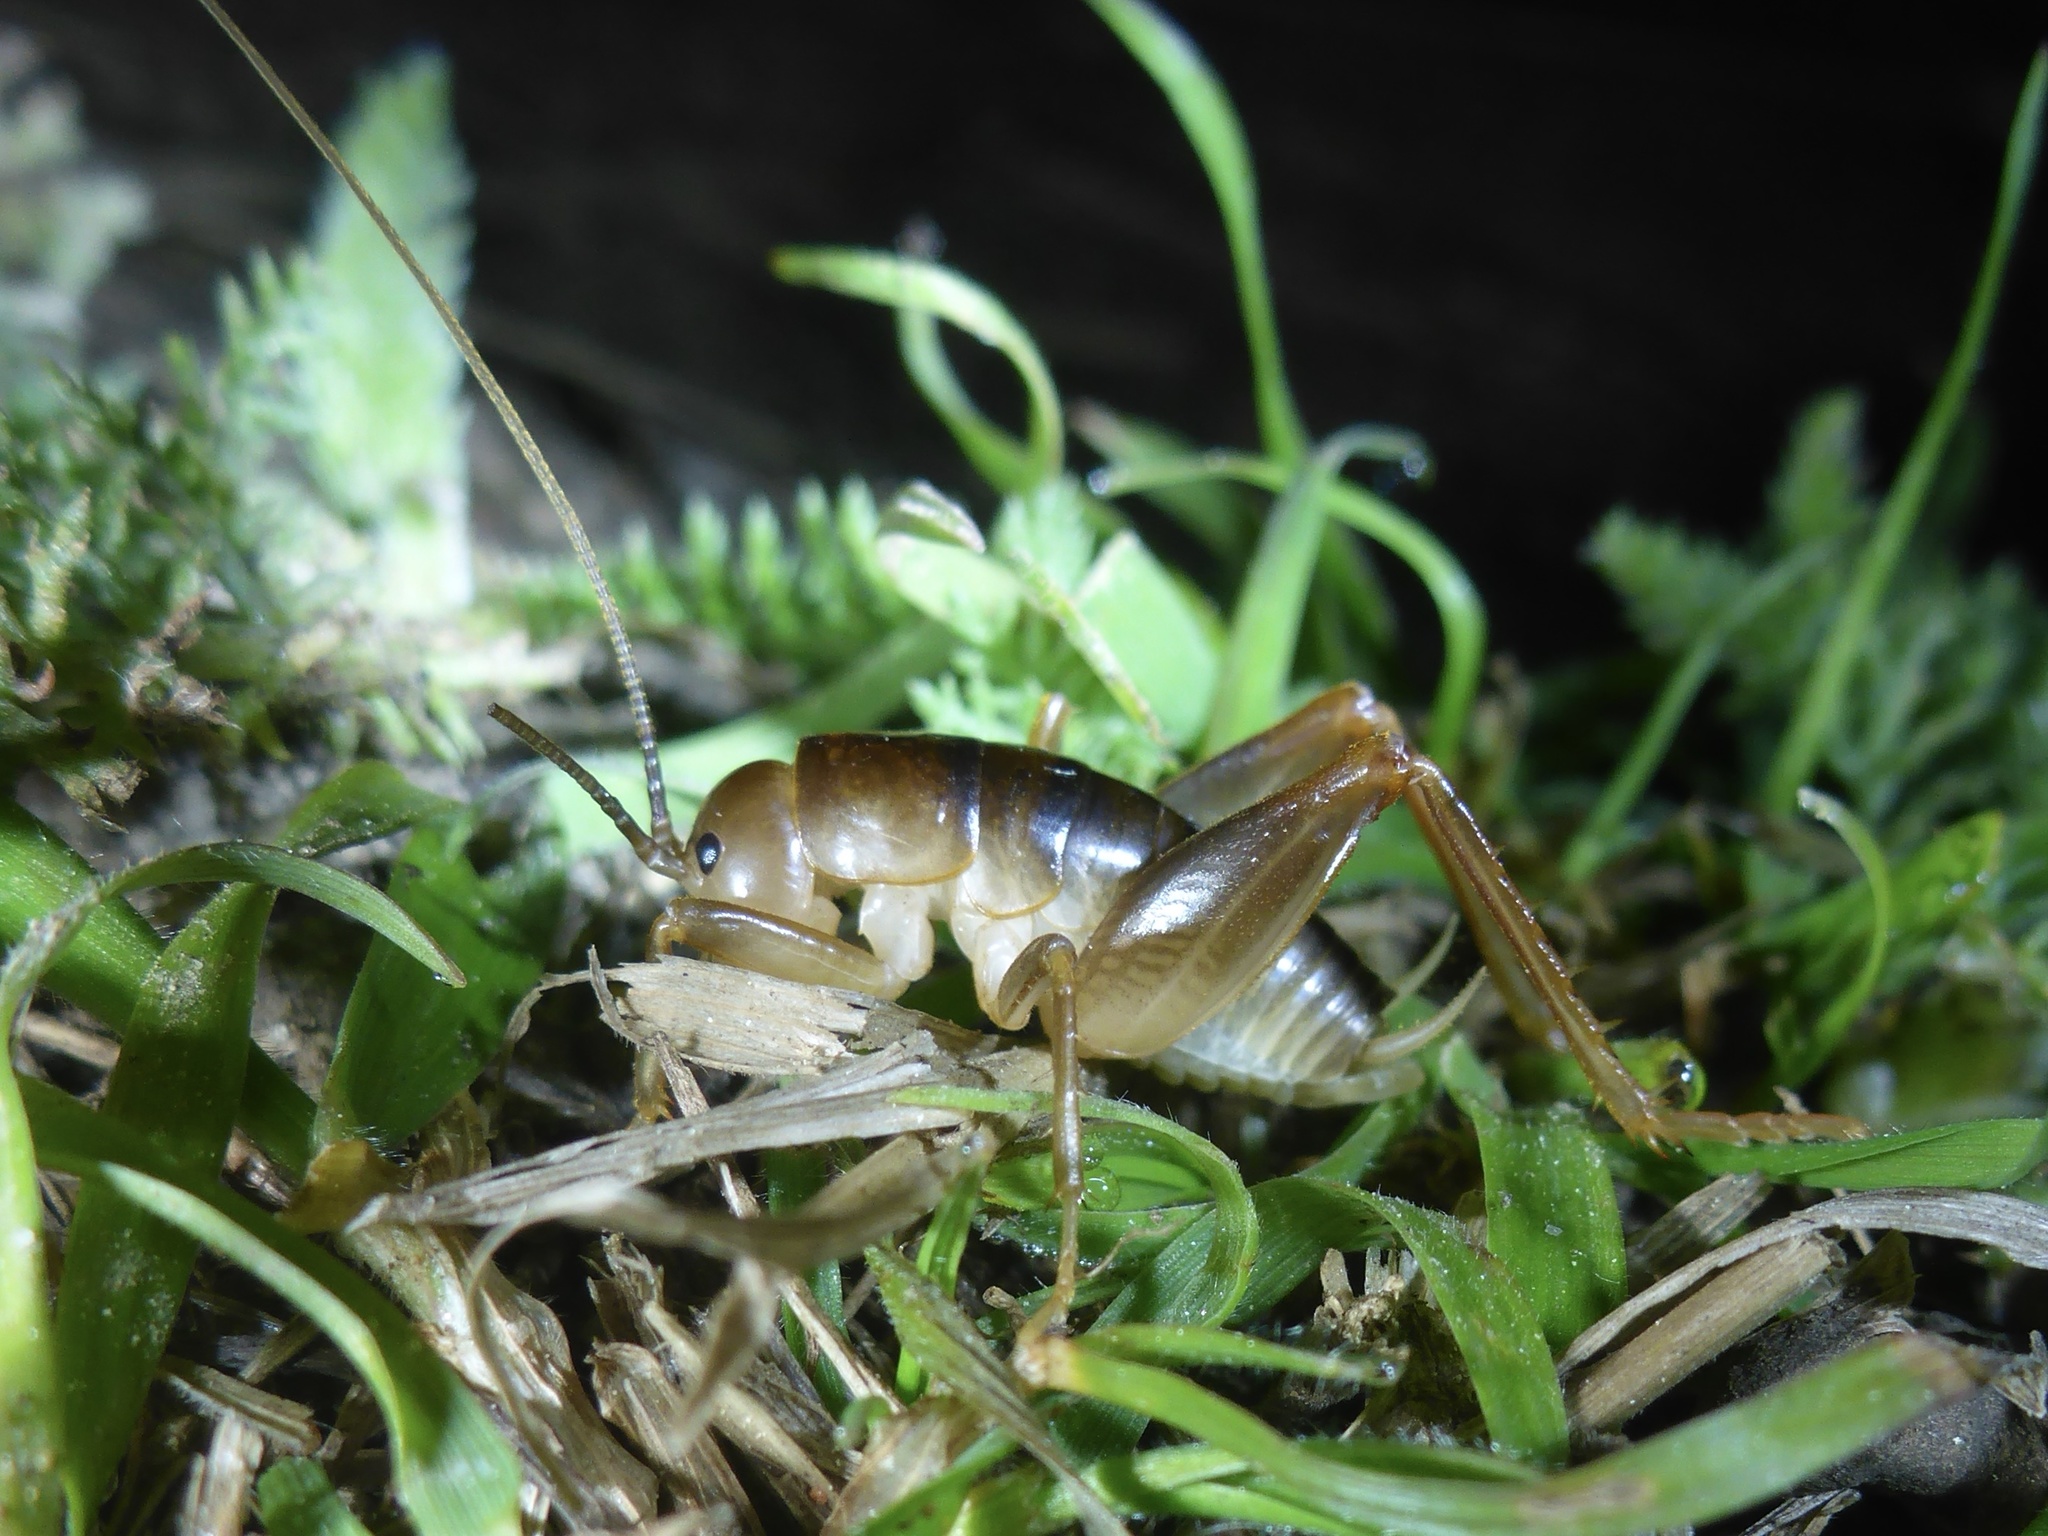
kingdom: Animalia
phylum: Arthropoda
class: Insecta
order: Orthoptera
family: Rhaphidophoridae
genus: Ceuthophilus
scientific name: Ceuthophilus californianus
